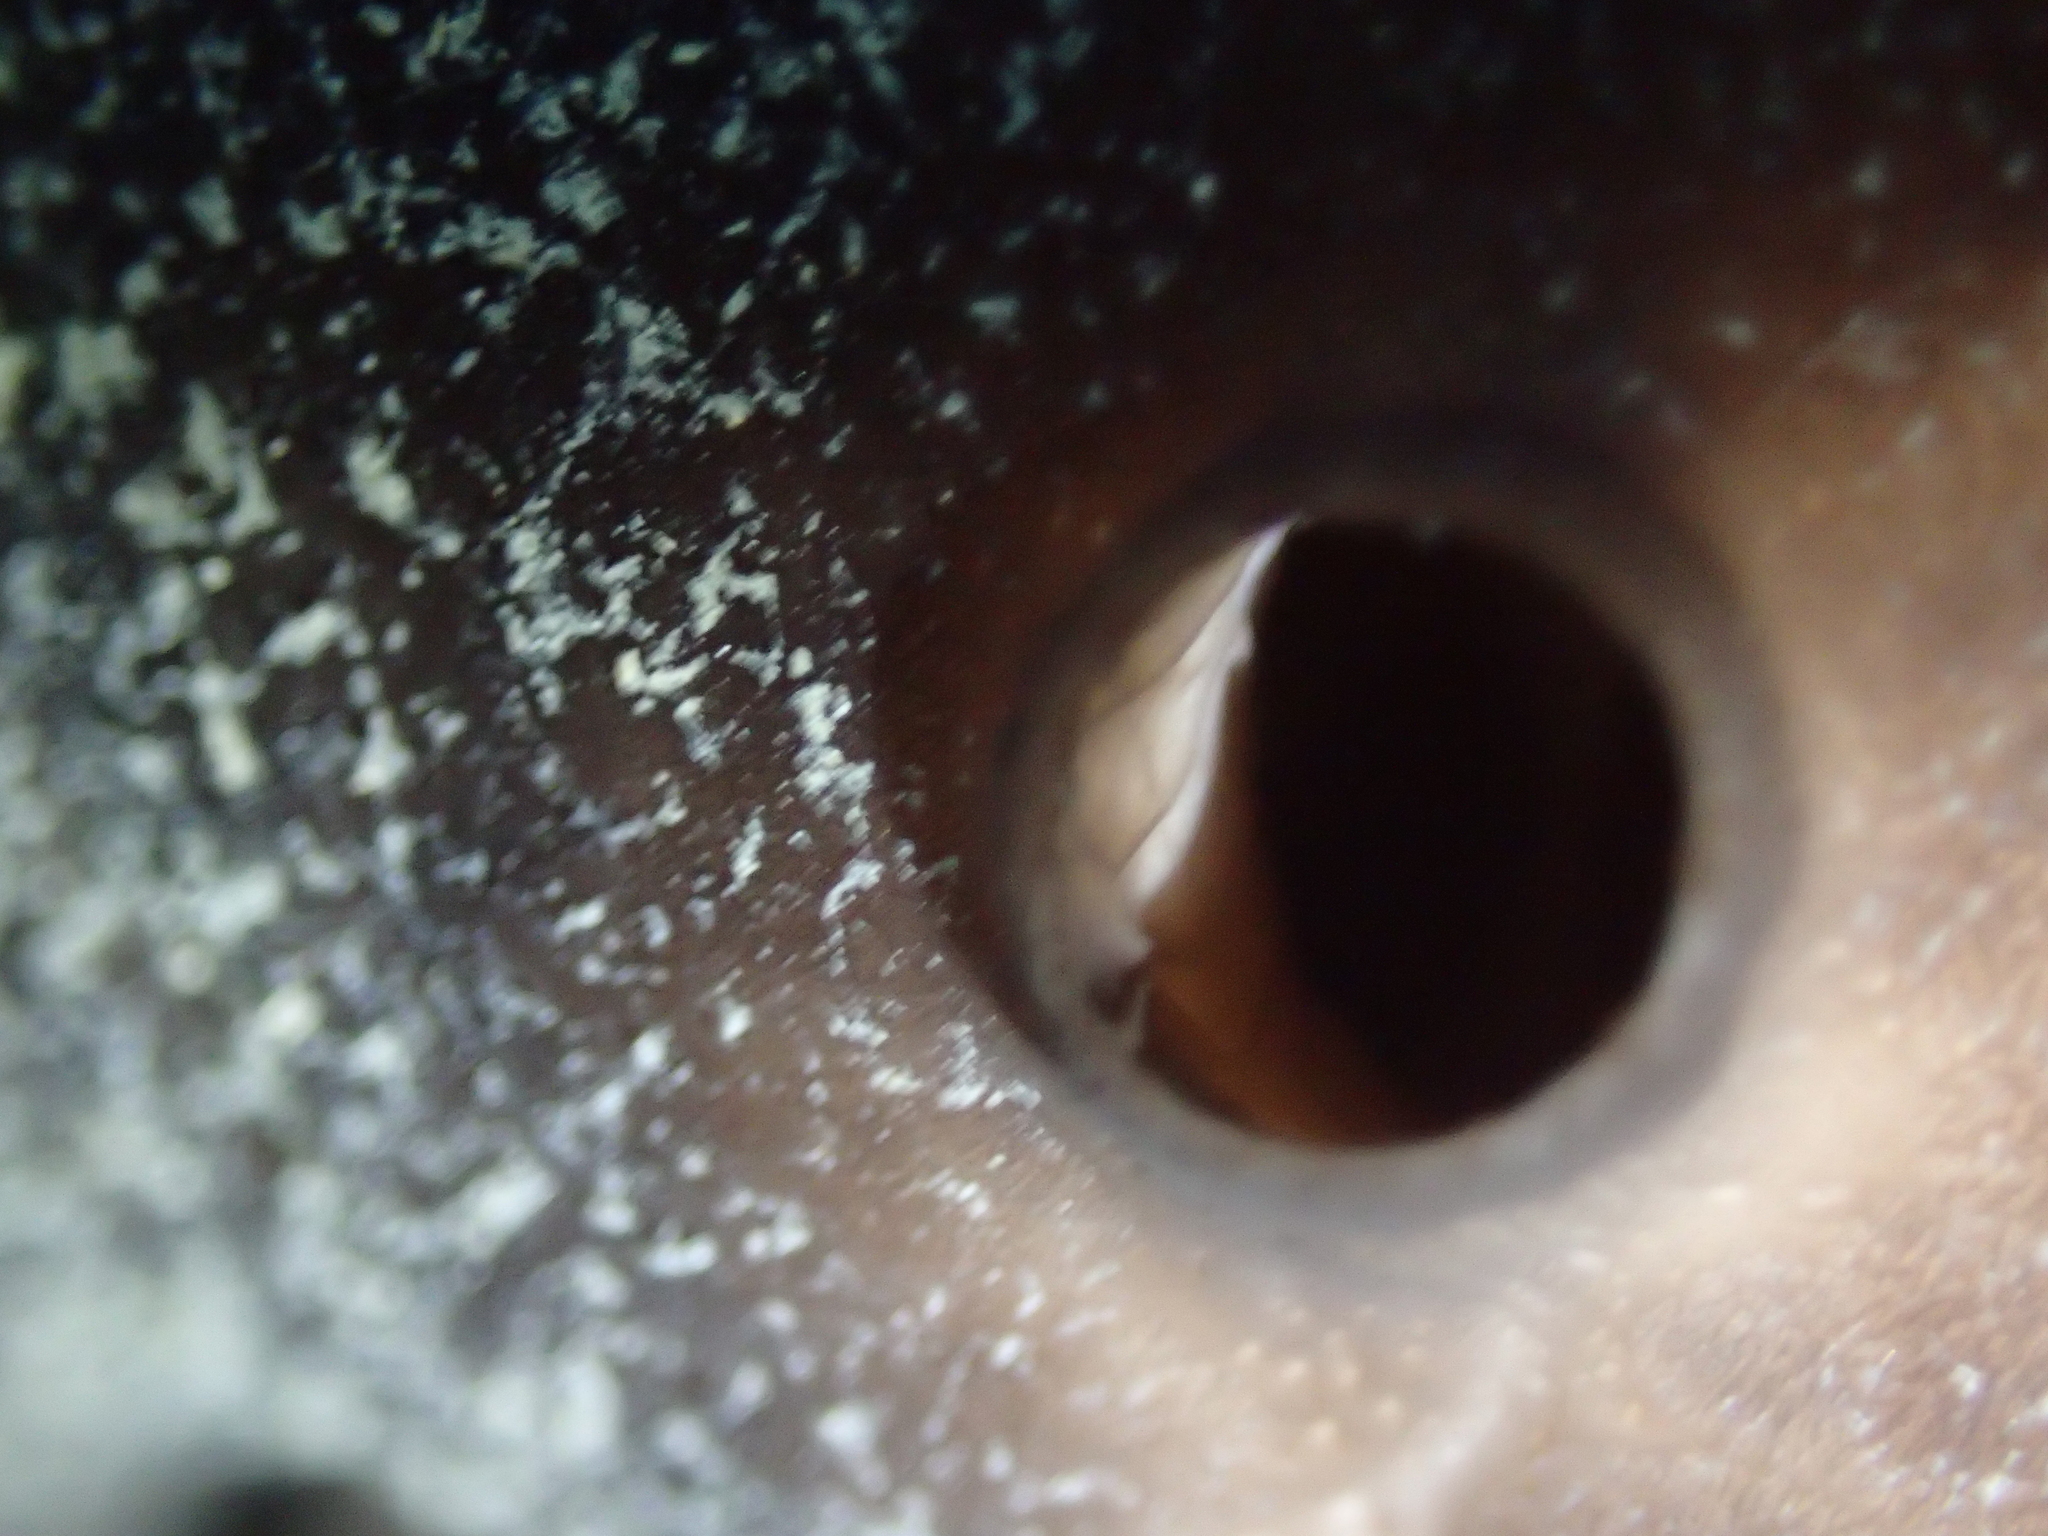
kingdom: Animalia
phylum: Porifera
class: Demospongiae
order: Chondrosiida
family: Chondrosiidae
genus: Chondrosia
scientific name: Chondrosia reniformis
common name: Chicken liver sponge
